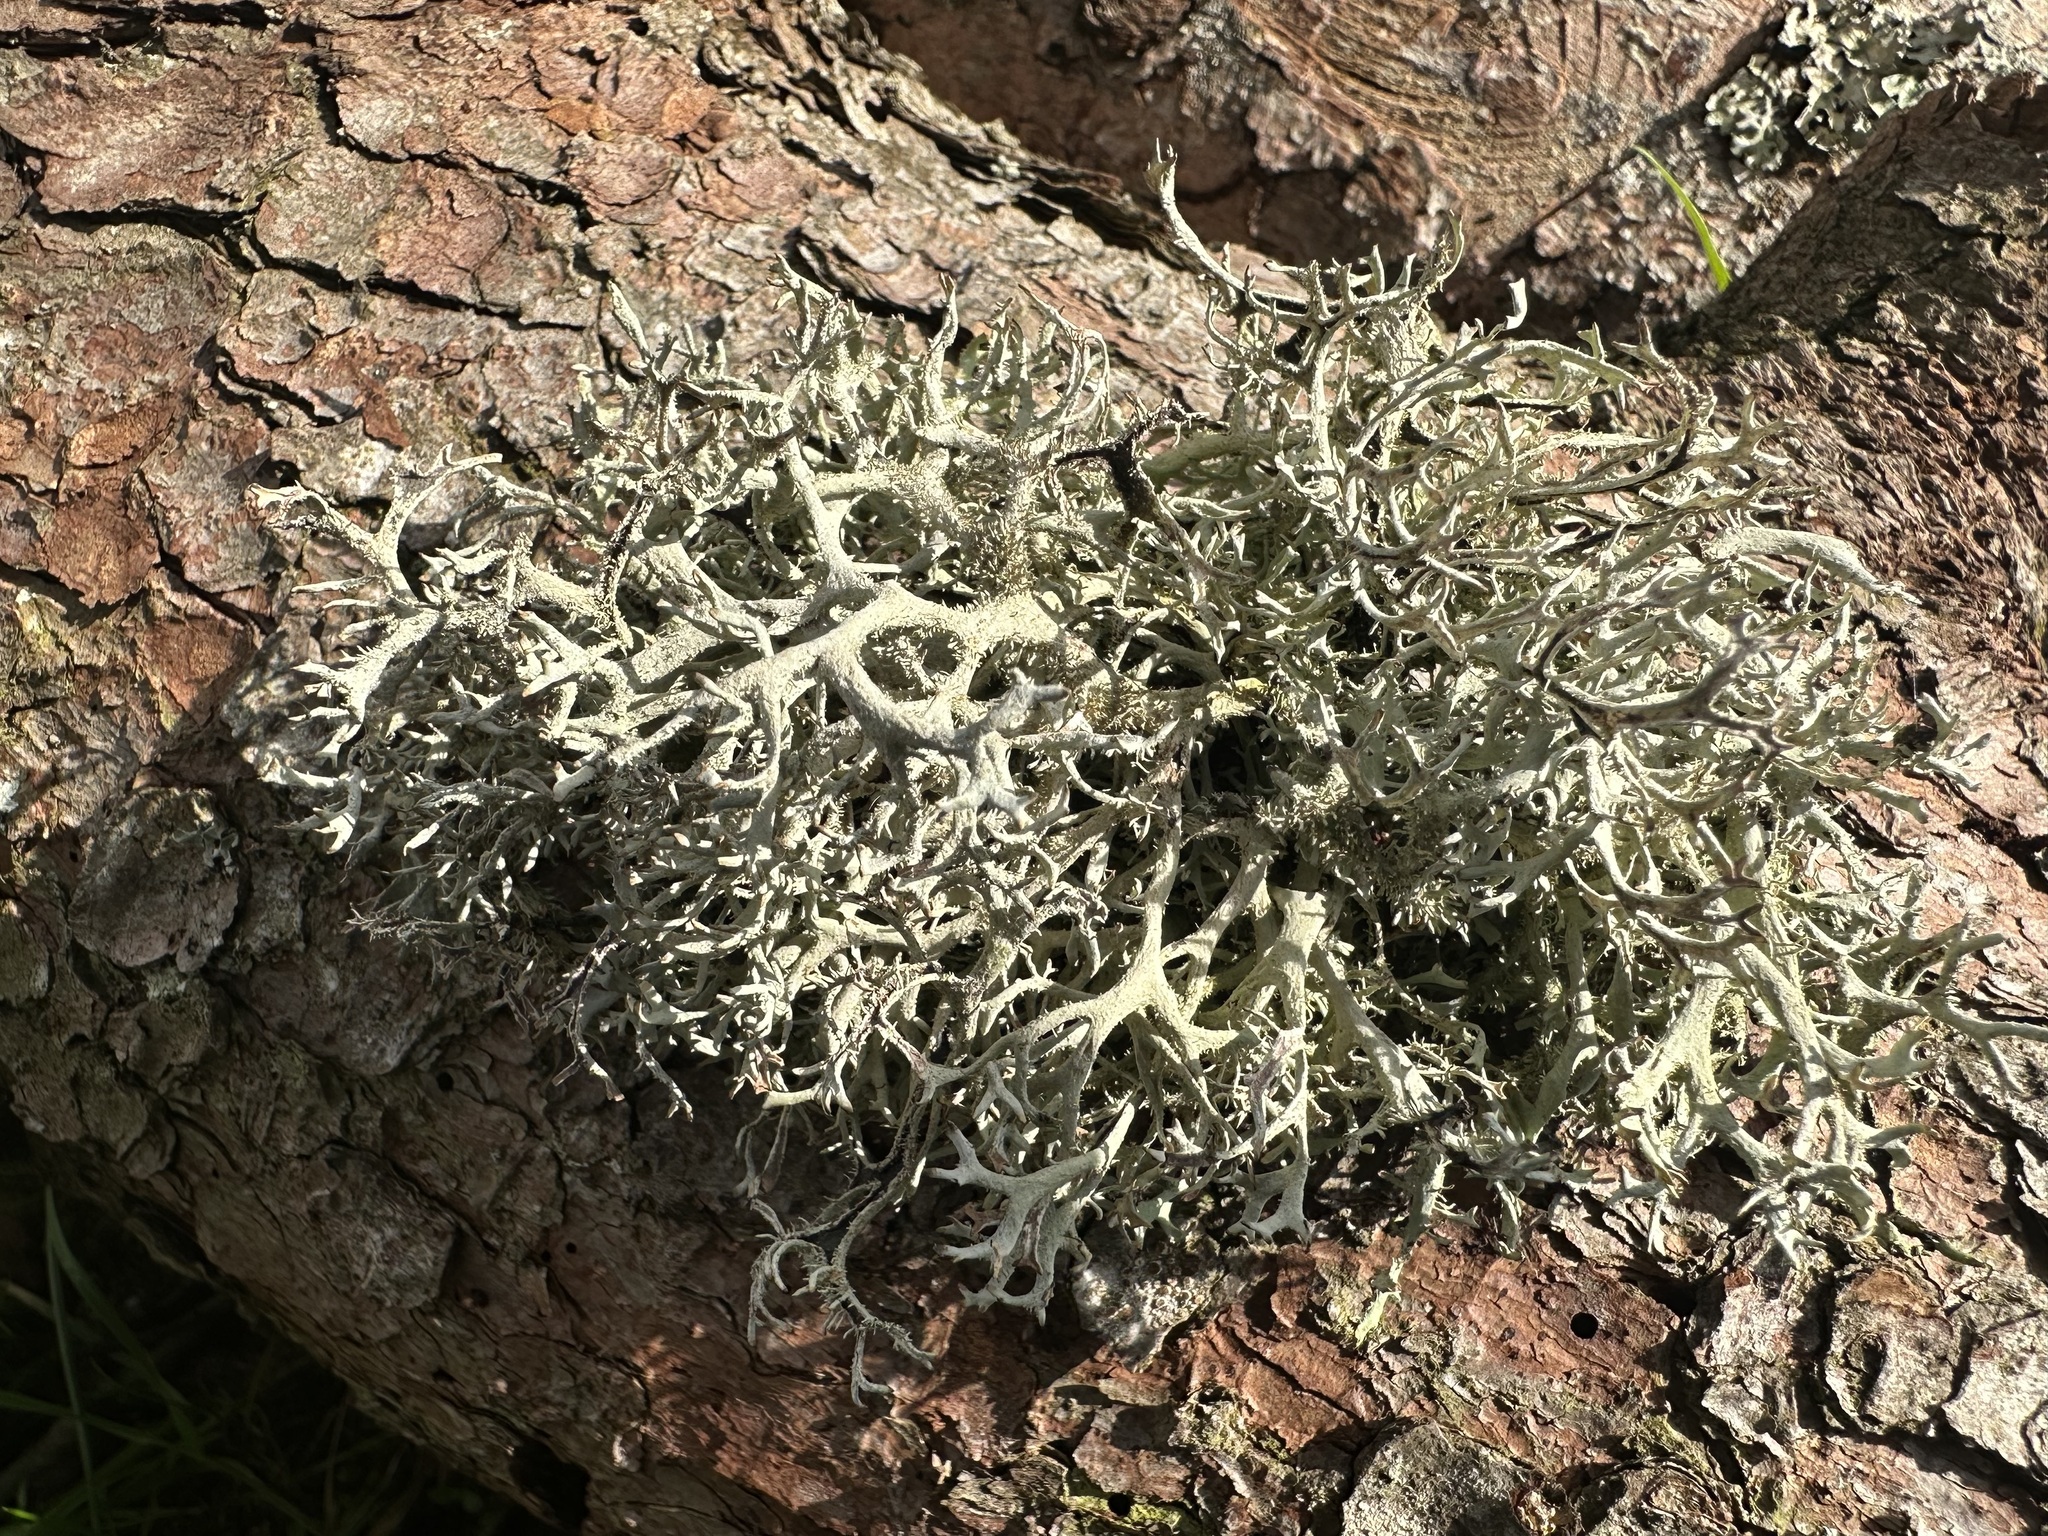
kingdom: Fungi
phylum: Ascomycota
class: Lecanoromycetes
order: Lecanorales
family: Parmeliaceae
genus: Pseudevernia
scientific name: Pseudevernia furfuracea
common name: Tree moss
